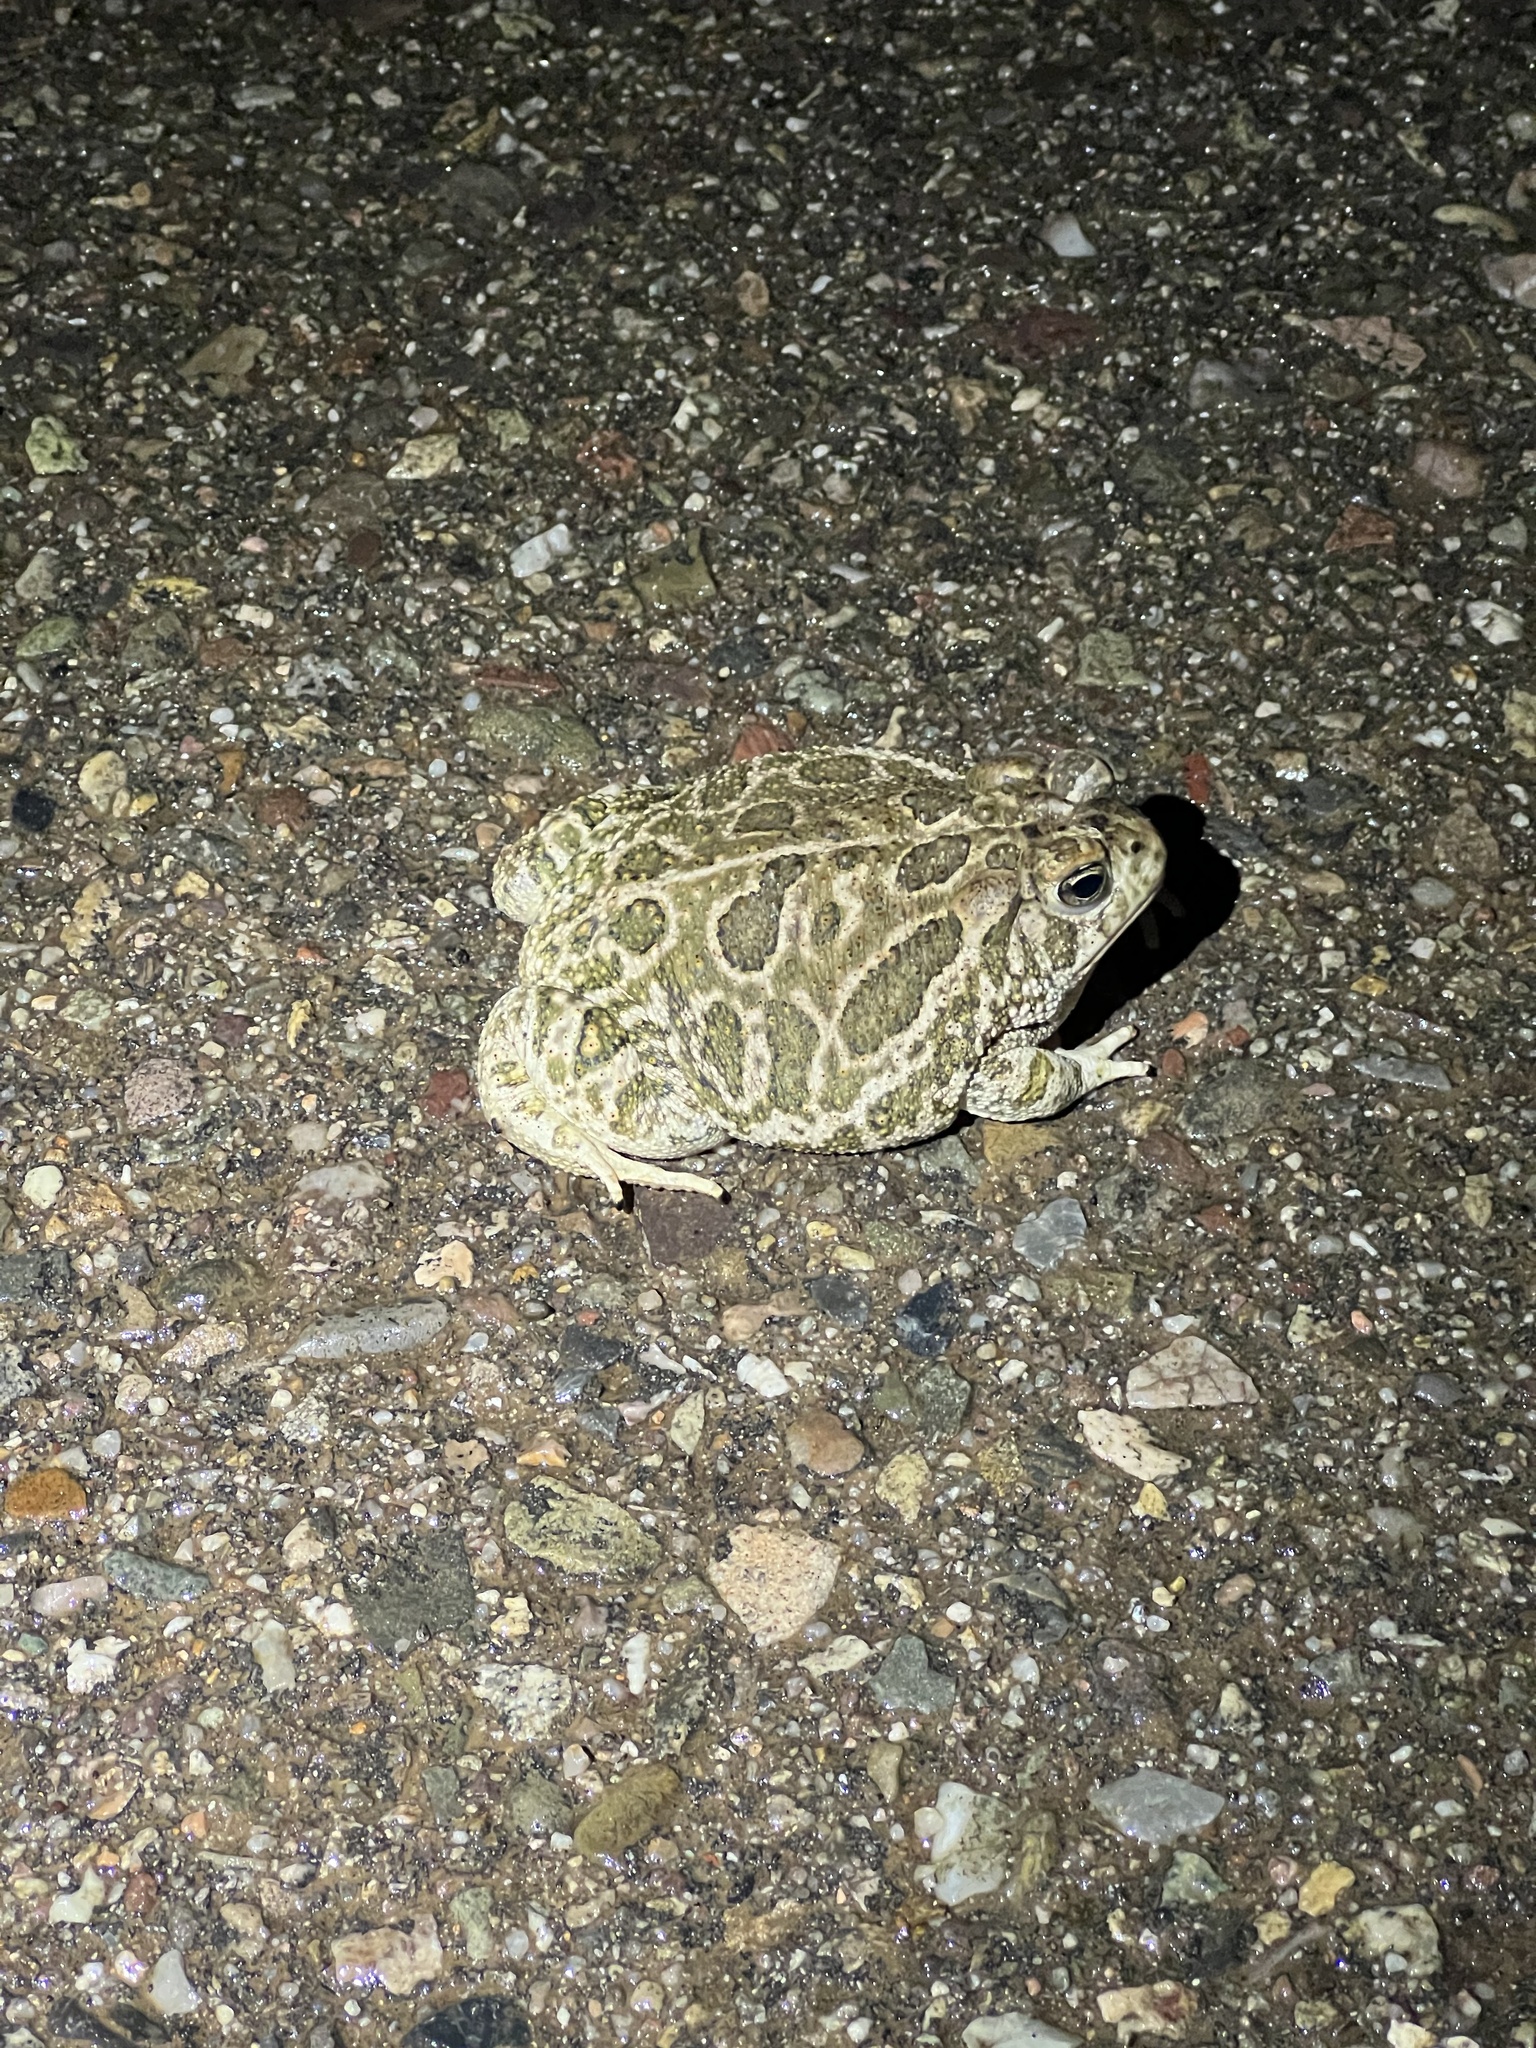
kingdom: Animalia
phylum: Chordata
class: Amphibia
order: Anura
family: Bufonidae
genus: Anaxyrus
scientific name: Anaxyrus cognatus
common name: Great plains toad
